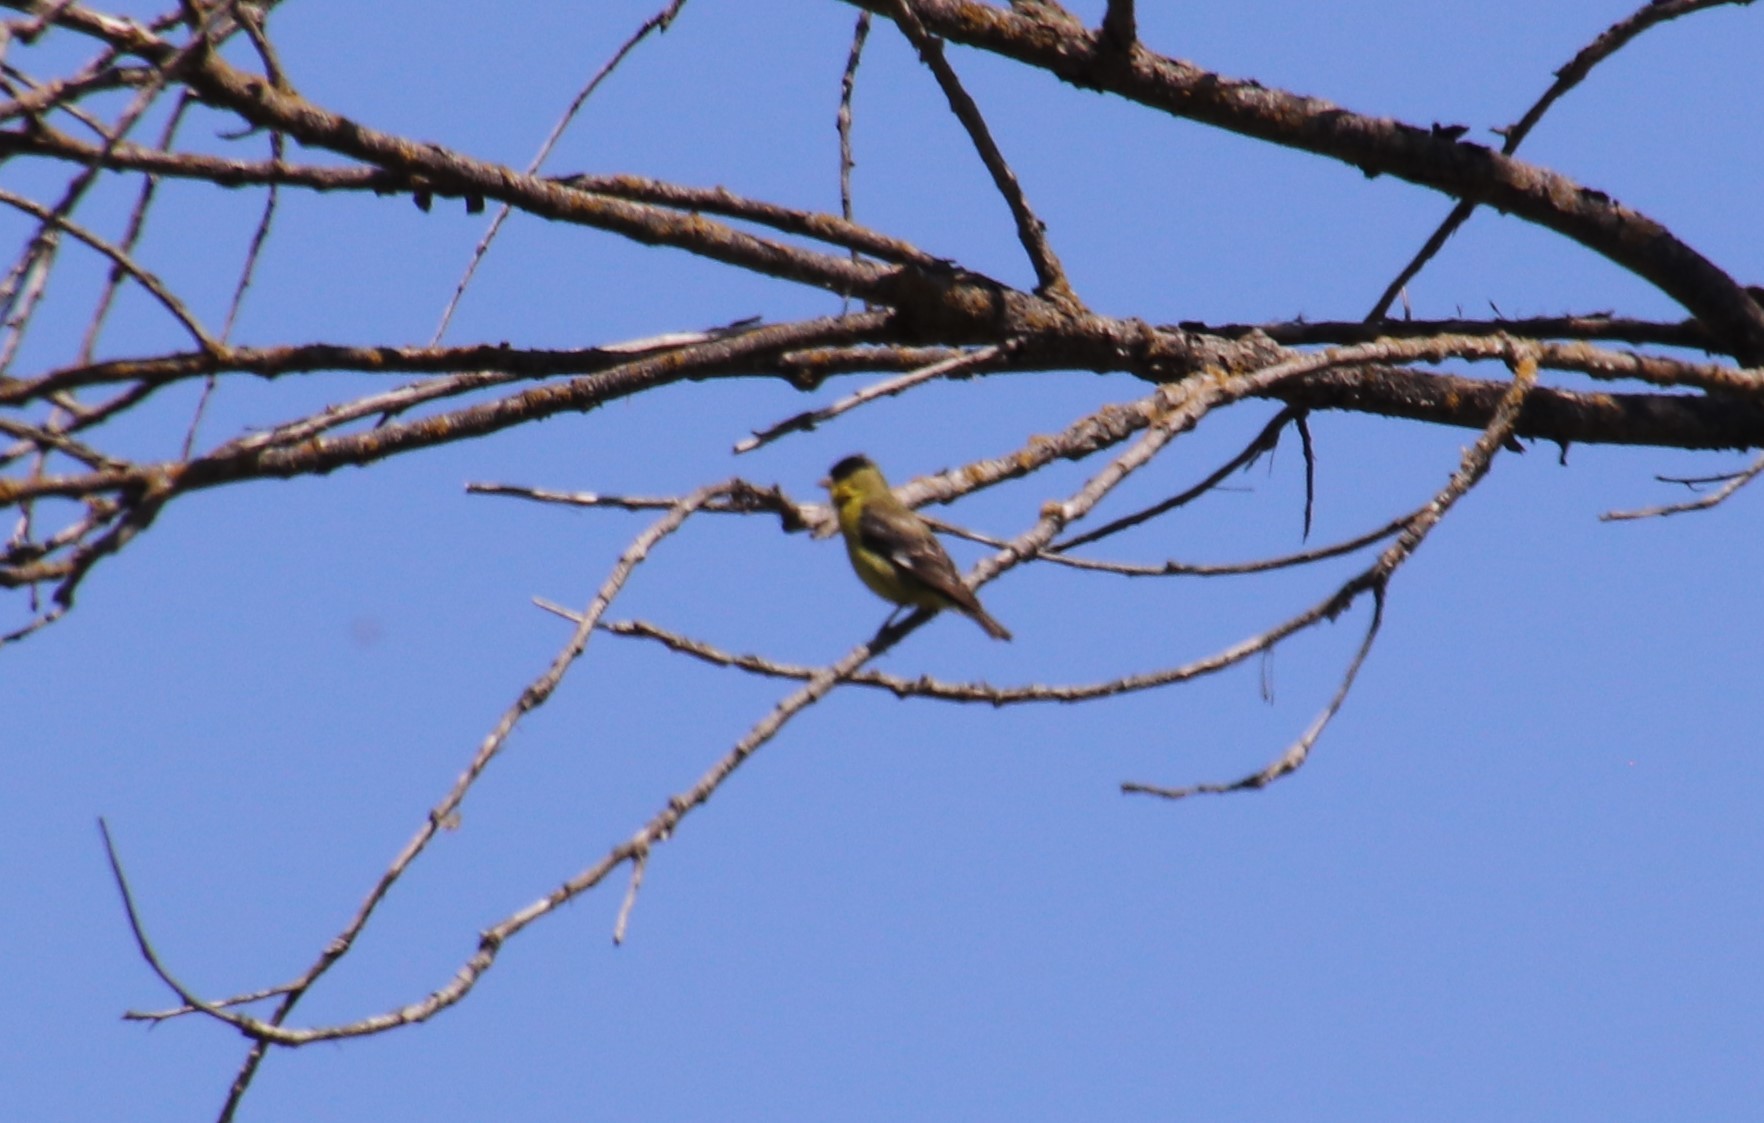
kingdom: Animalia
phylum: Chordata
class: Aves
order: Passeriformes
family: Fringillidae
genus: Spinus
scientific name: Spinus psaltria
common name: Lesser goldfinch
